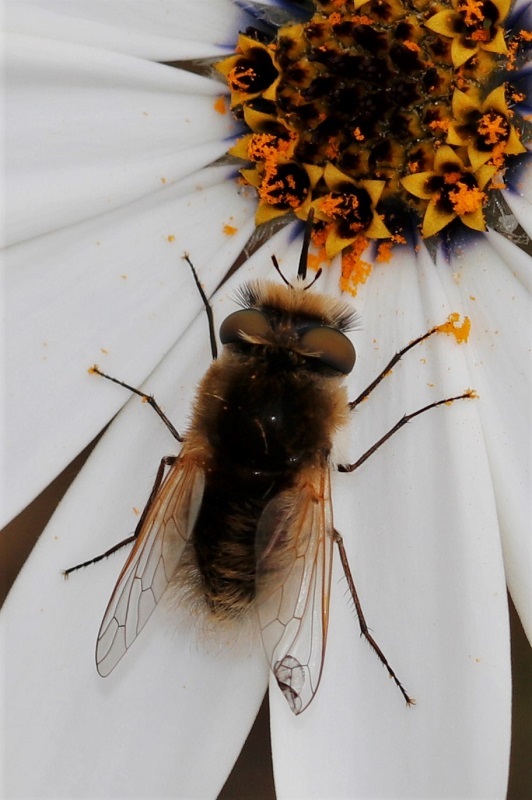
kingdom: Animalia
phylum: Arthropoda
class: Insecta
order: Diptera
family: Bombyliidae
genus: Corsomyza
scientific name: Corsomyza tricellulata
